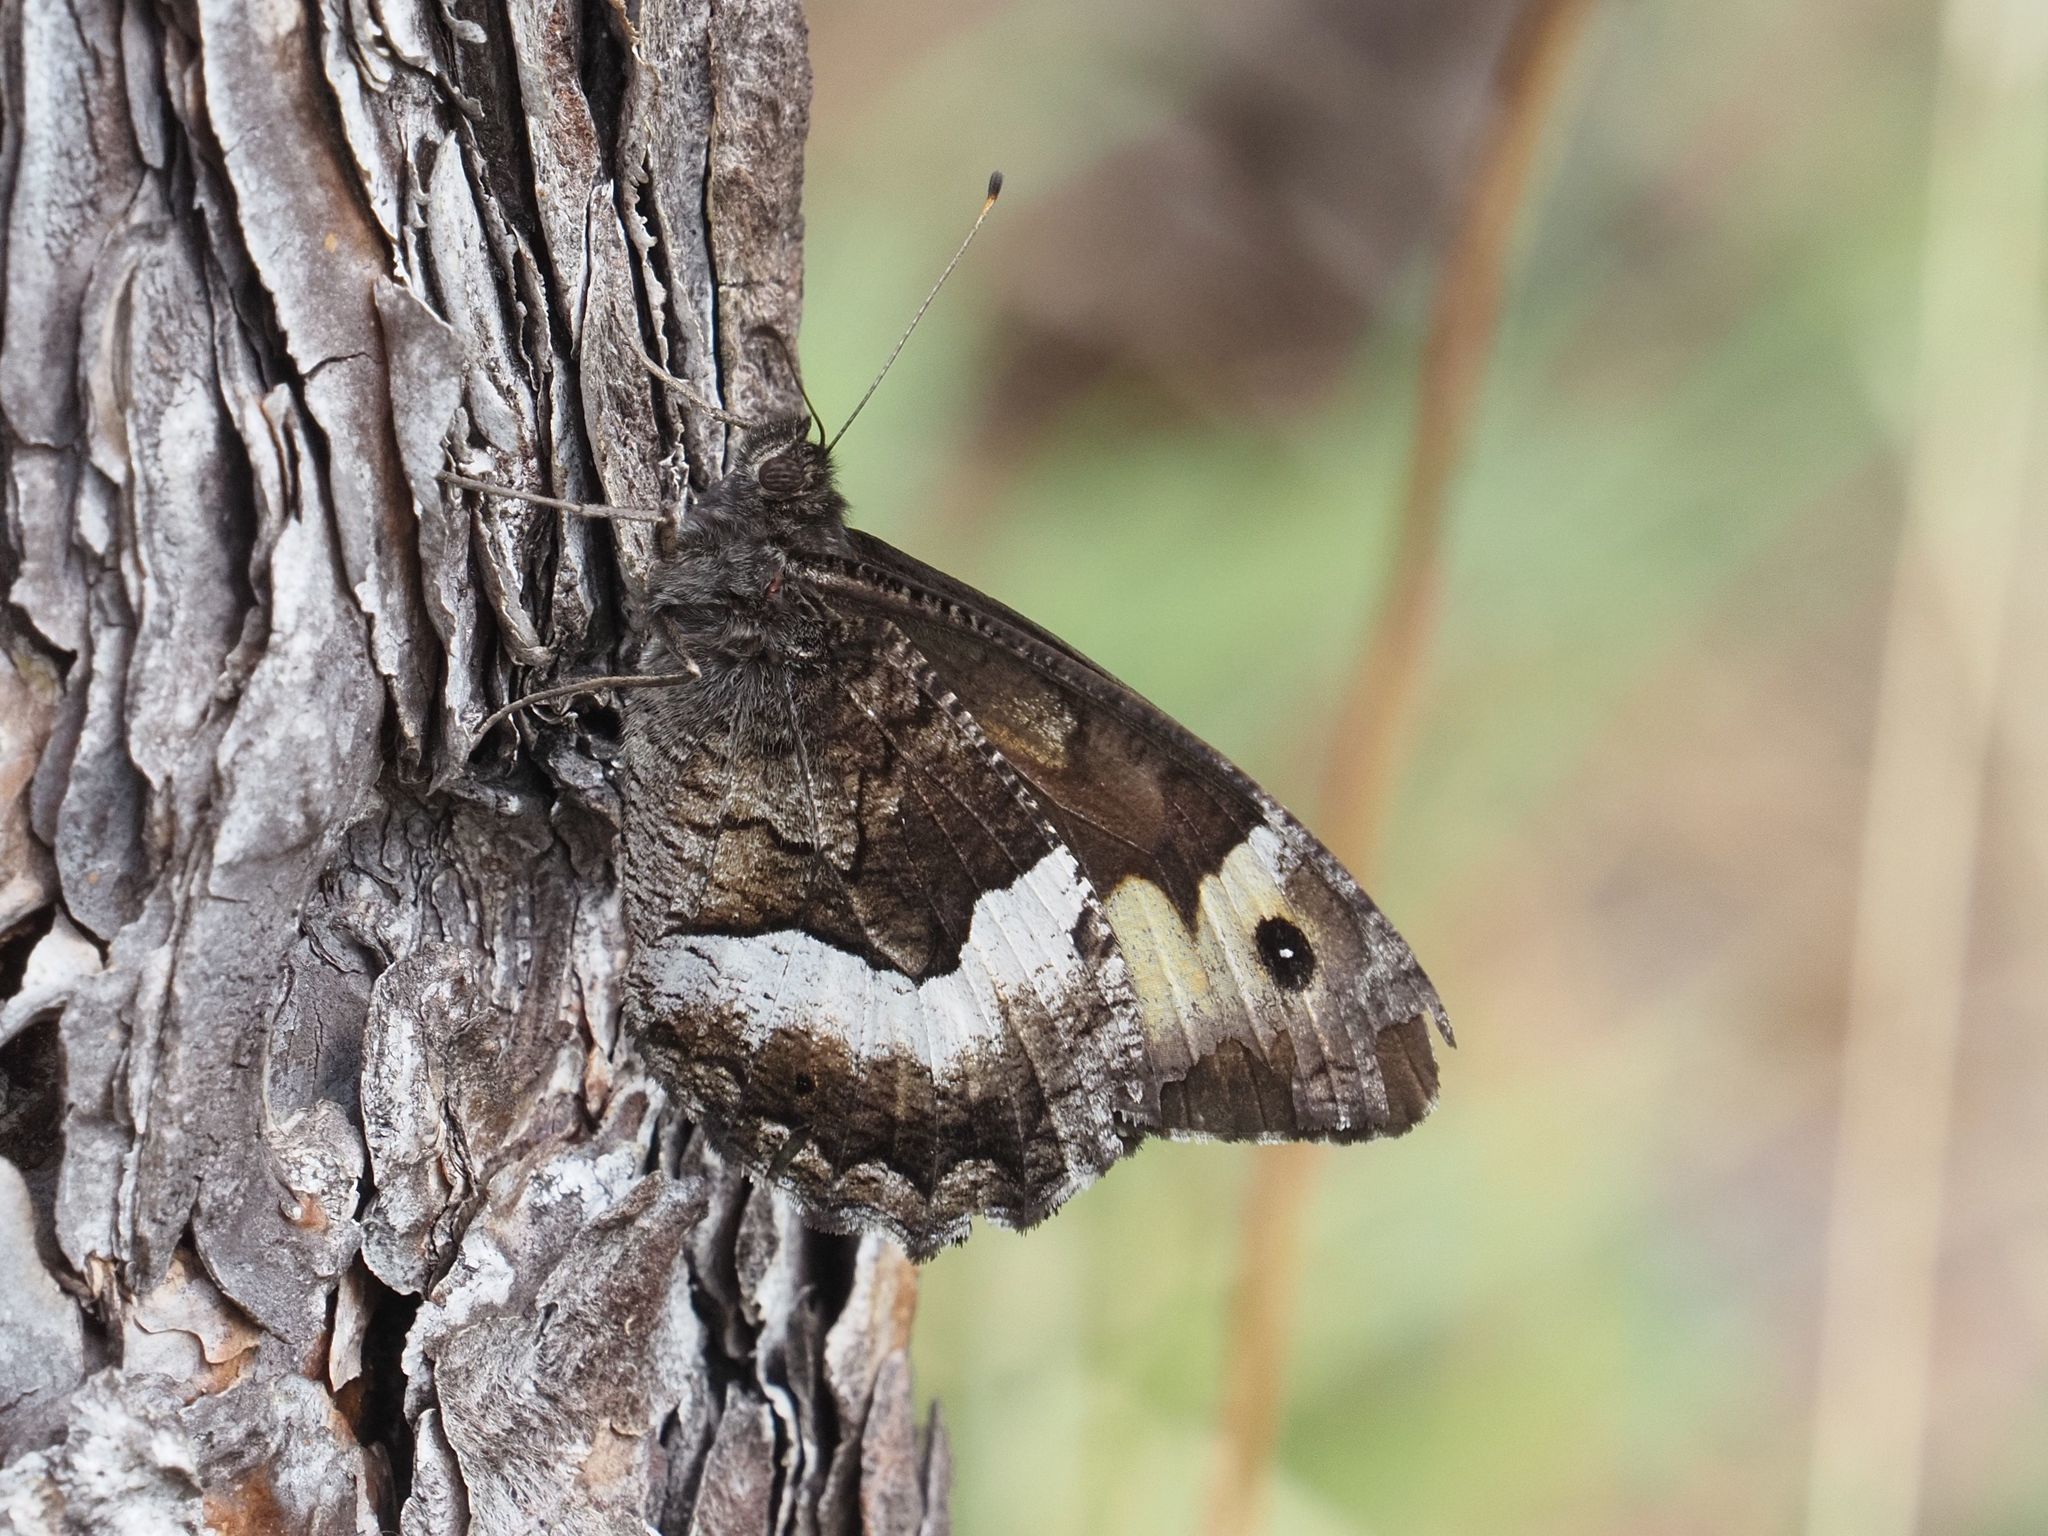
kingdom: Animalia
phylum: Arthropoda
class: Insecta
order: Lepidoptera
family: Nymphalidae
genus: Hipparchia
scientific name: Hipparchia hermione
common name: Rock grayling
